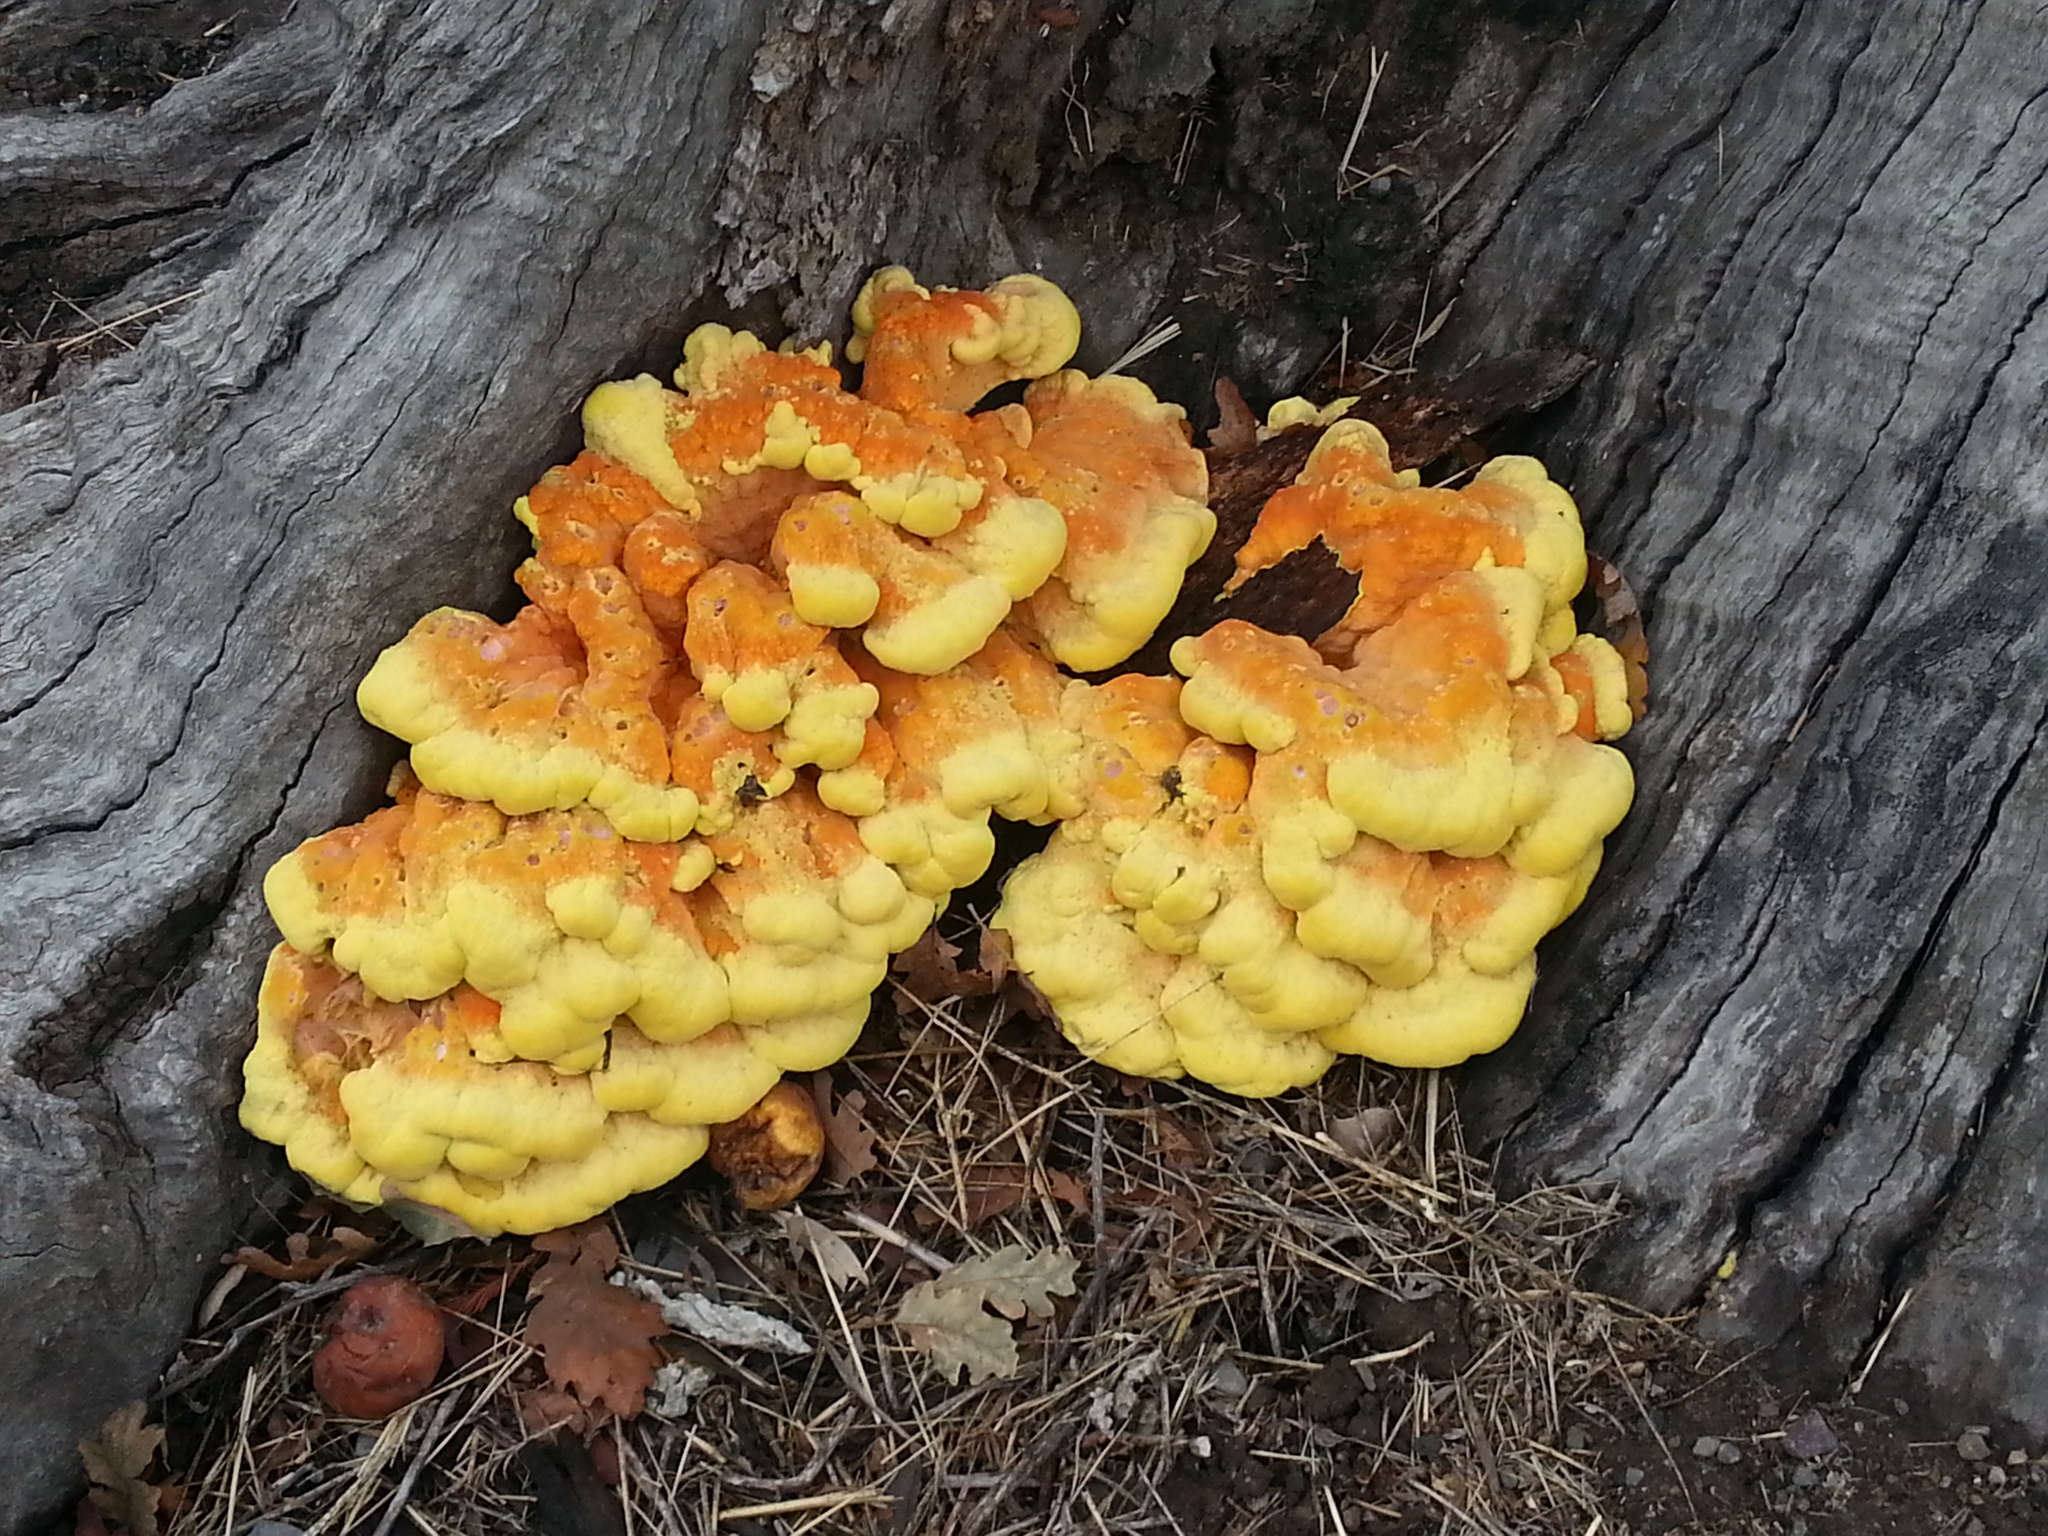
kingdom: Fungi
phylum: Basidiomycota
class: Agaricomycetes
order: Polyporales
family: Laetiporaceae
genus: Laetiporus
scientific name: Laetiporus gilbertsonii
